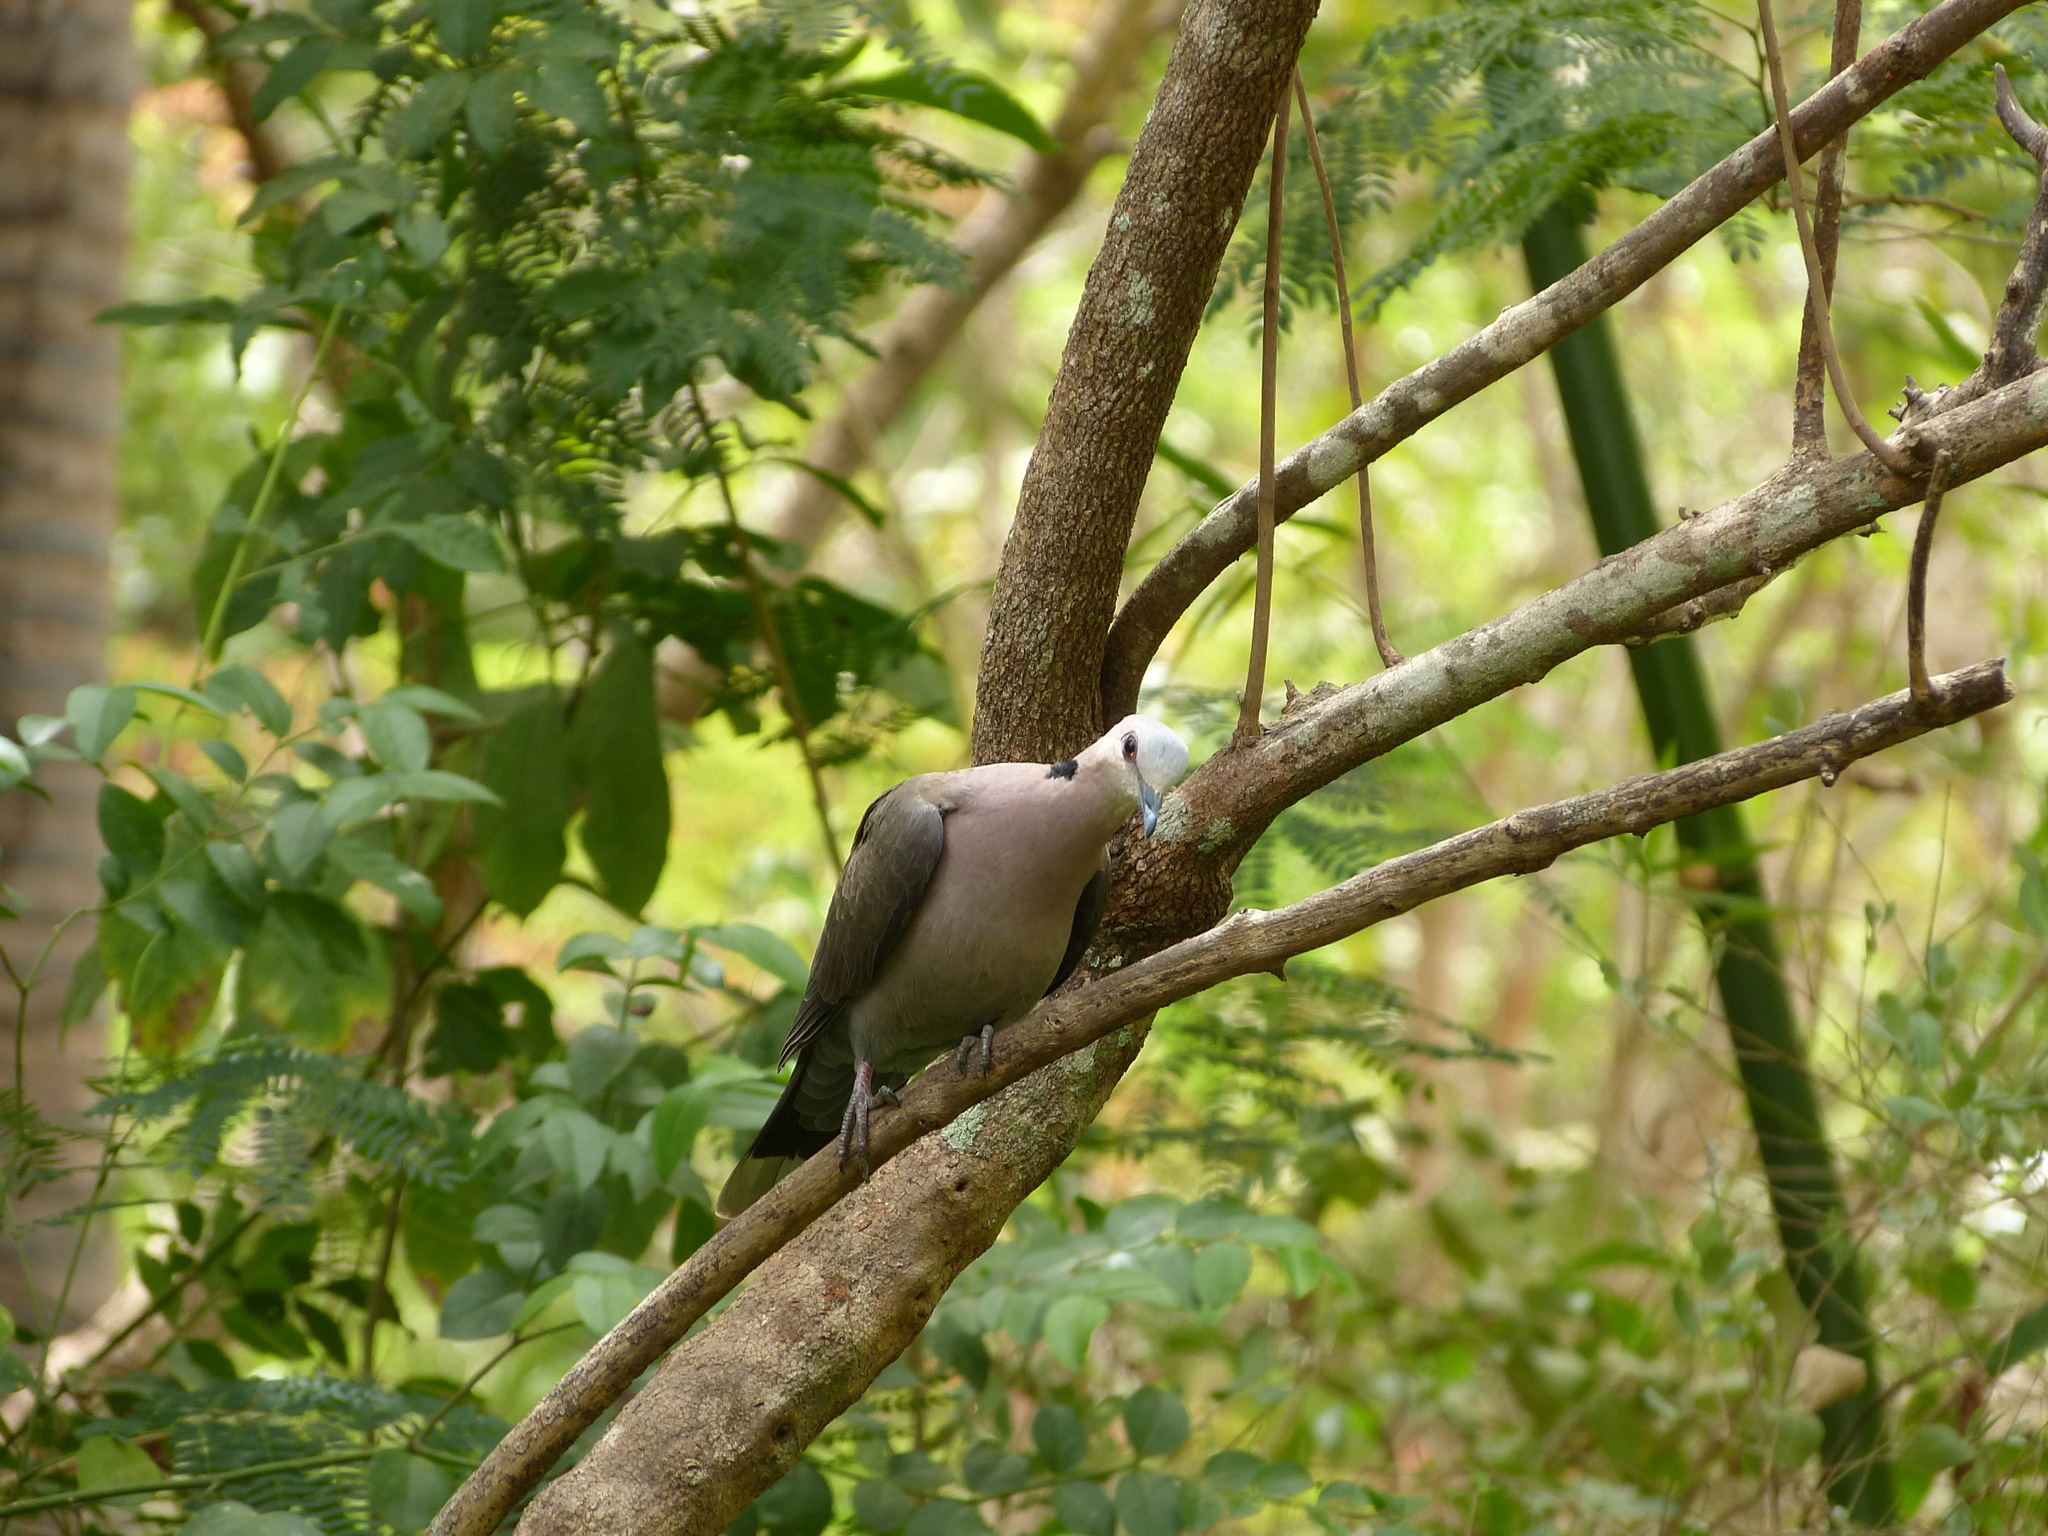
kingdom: Animalia
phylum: Chordata
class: Aves
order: Columbiformes
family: Columbidae
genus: Streptopelia
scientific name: Streptopelia semitorquata
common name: Red-eyed dove
